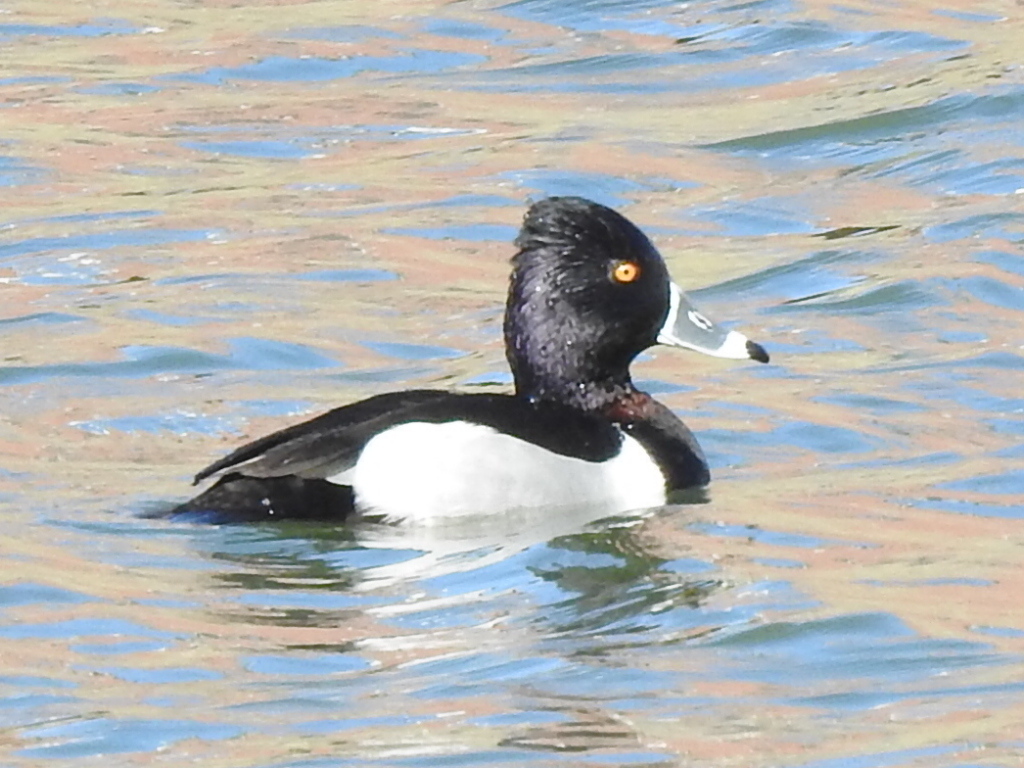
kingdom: Animalia
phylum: Chordata
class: Aves
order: Anseriformes
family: Anatidae
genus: Aythya
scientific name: Aythya collaris
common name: Ring-necked duck
